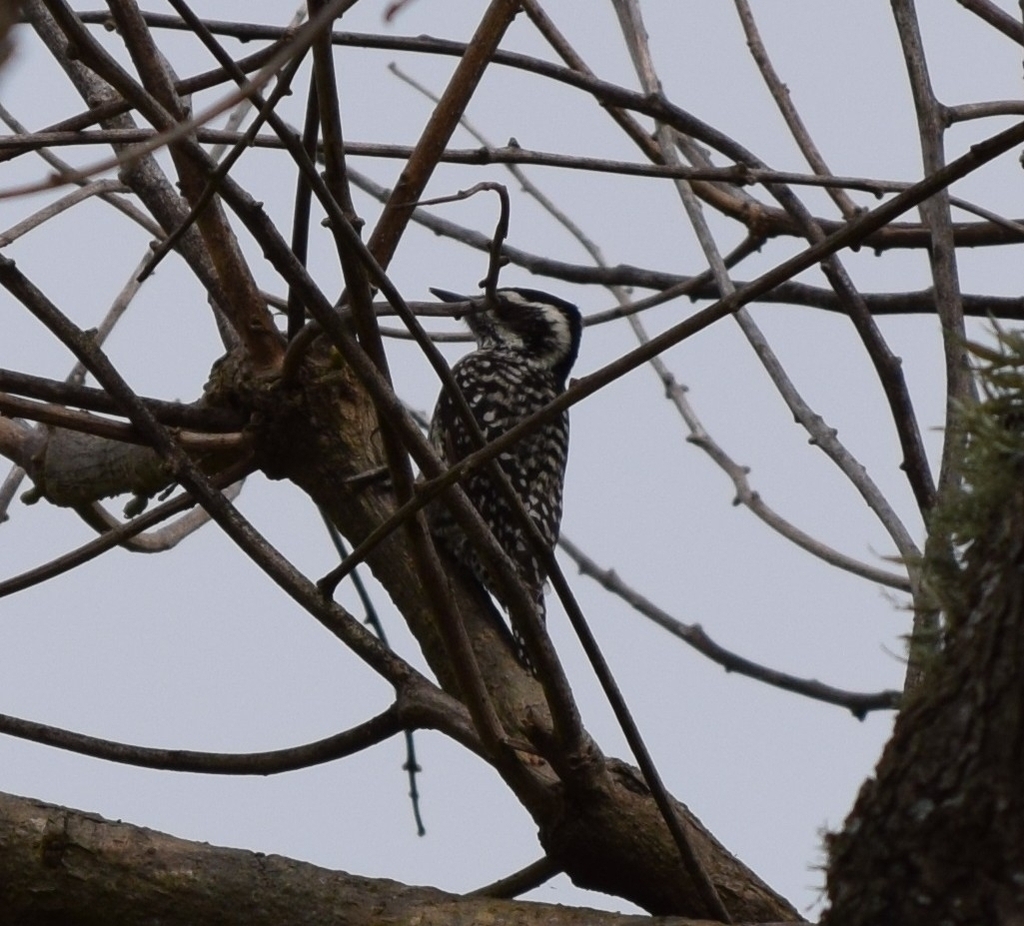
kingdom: Animalia
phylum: Chordata
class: Aves
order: Piciformes
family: Picidae
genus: Veniliornis
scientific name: Veniliornis mixtus
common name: Checkered woodpecker
